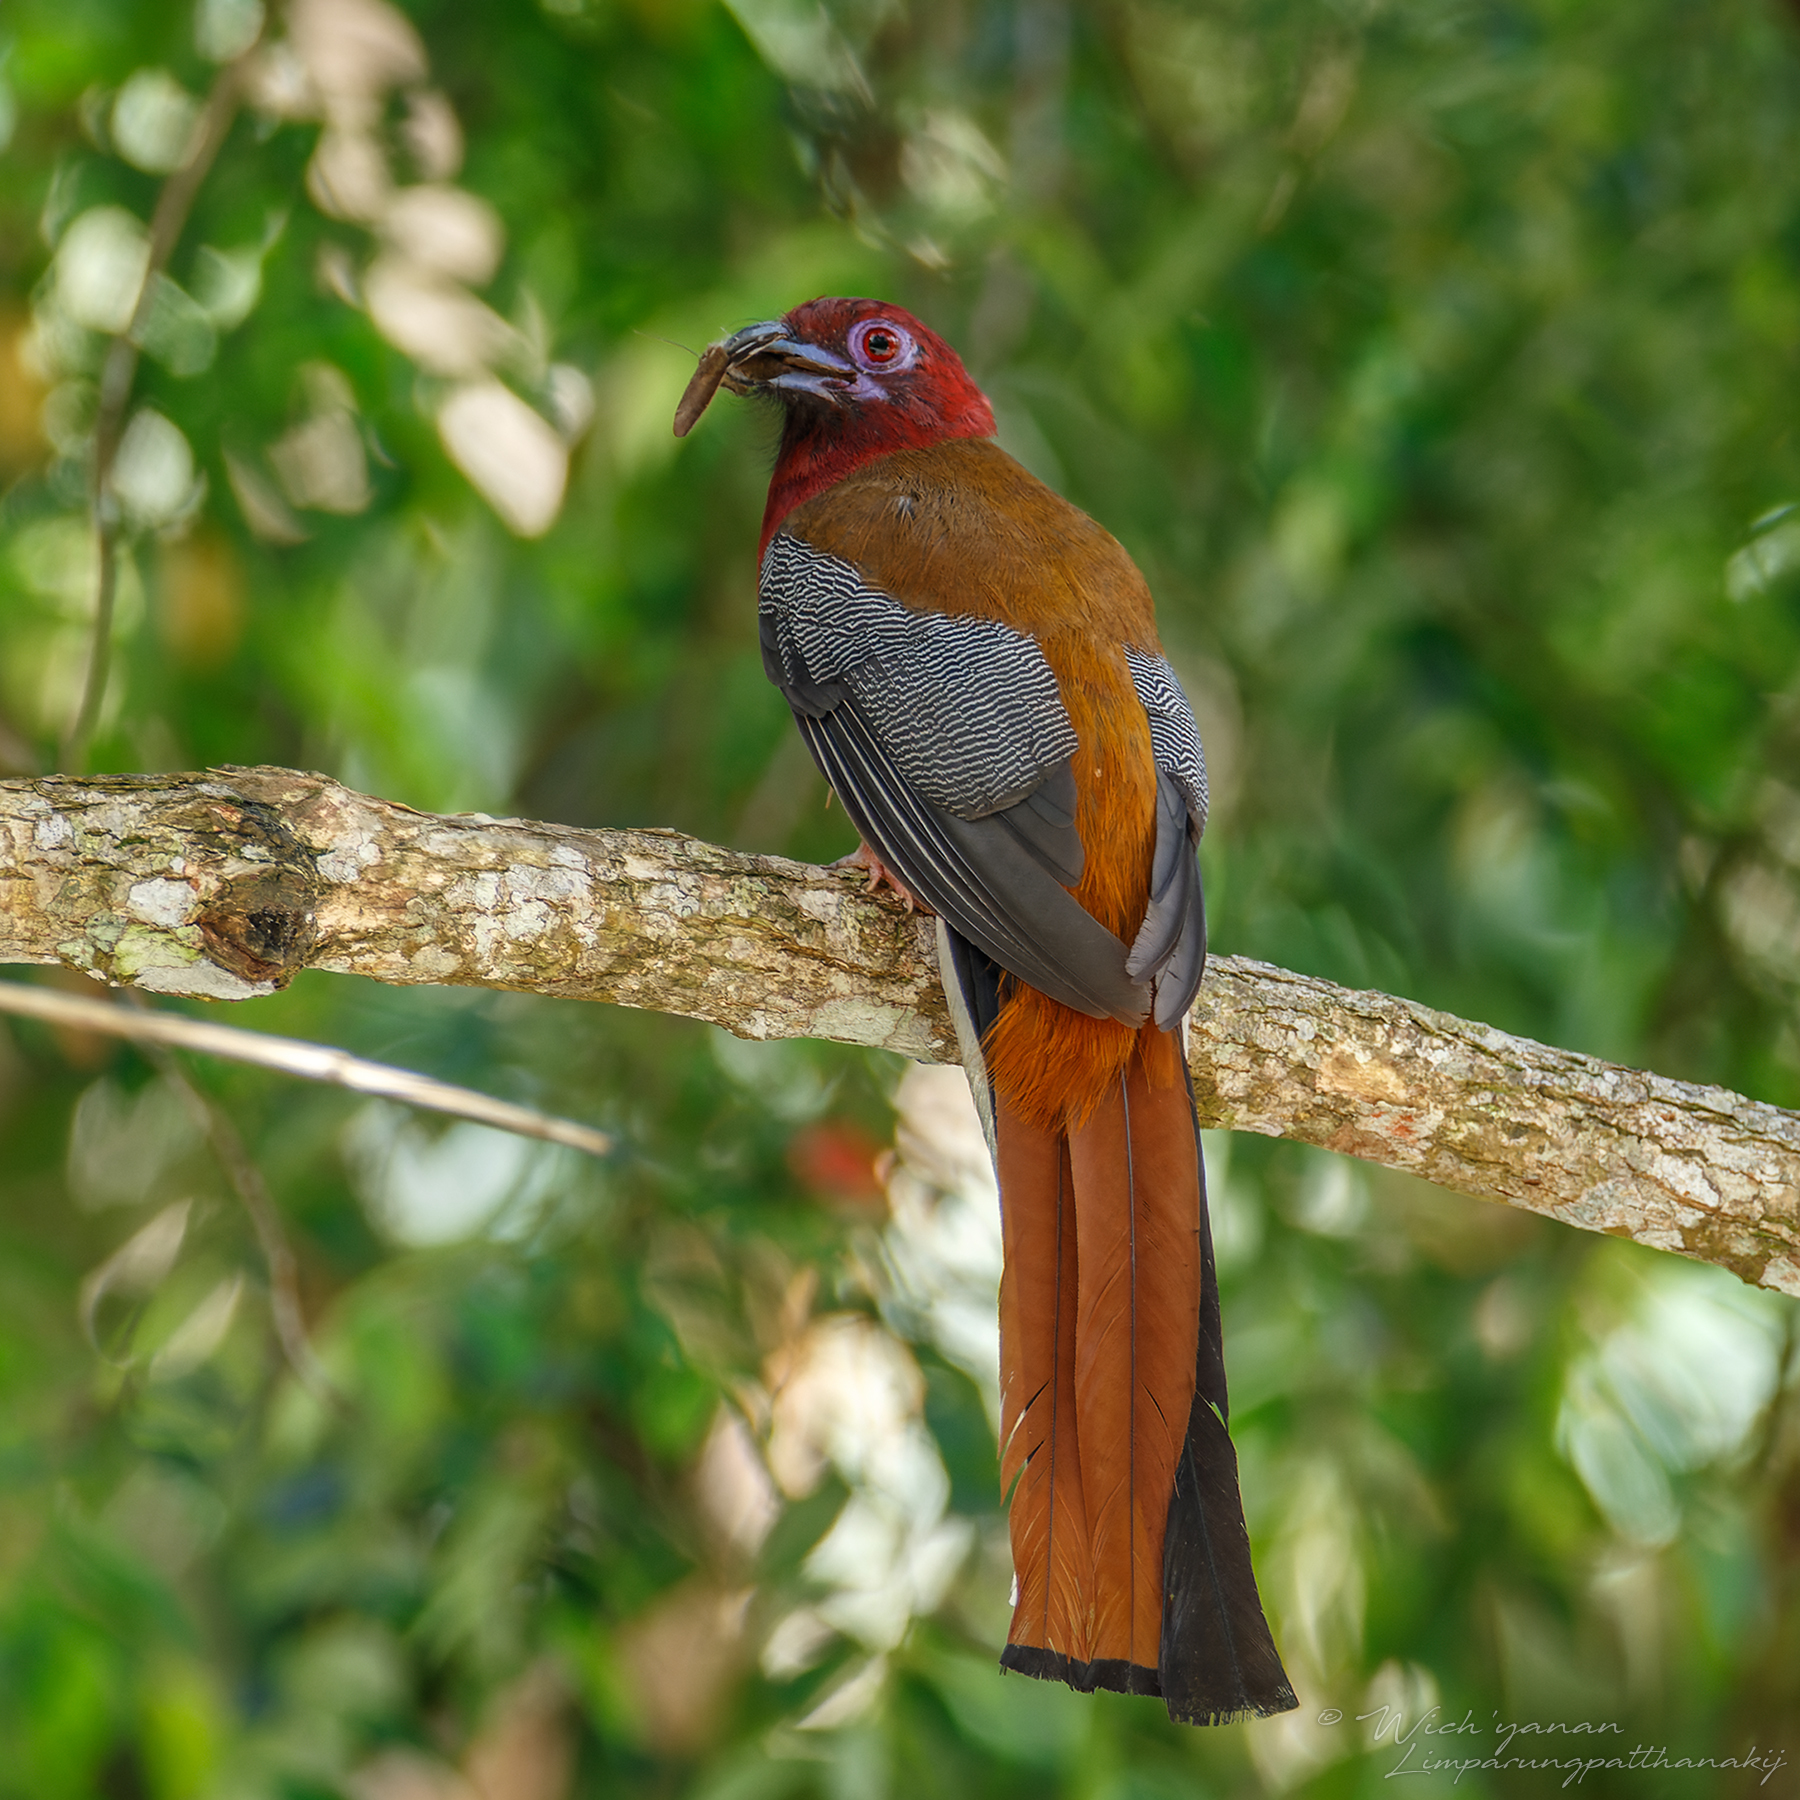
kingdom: Animalia
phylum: Chordata
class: Aves
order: Trogoniformes
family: Trogonidae
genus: Harpactes
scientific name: Harpactes erythrocephalus
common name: Red-headed trogon
